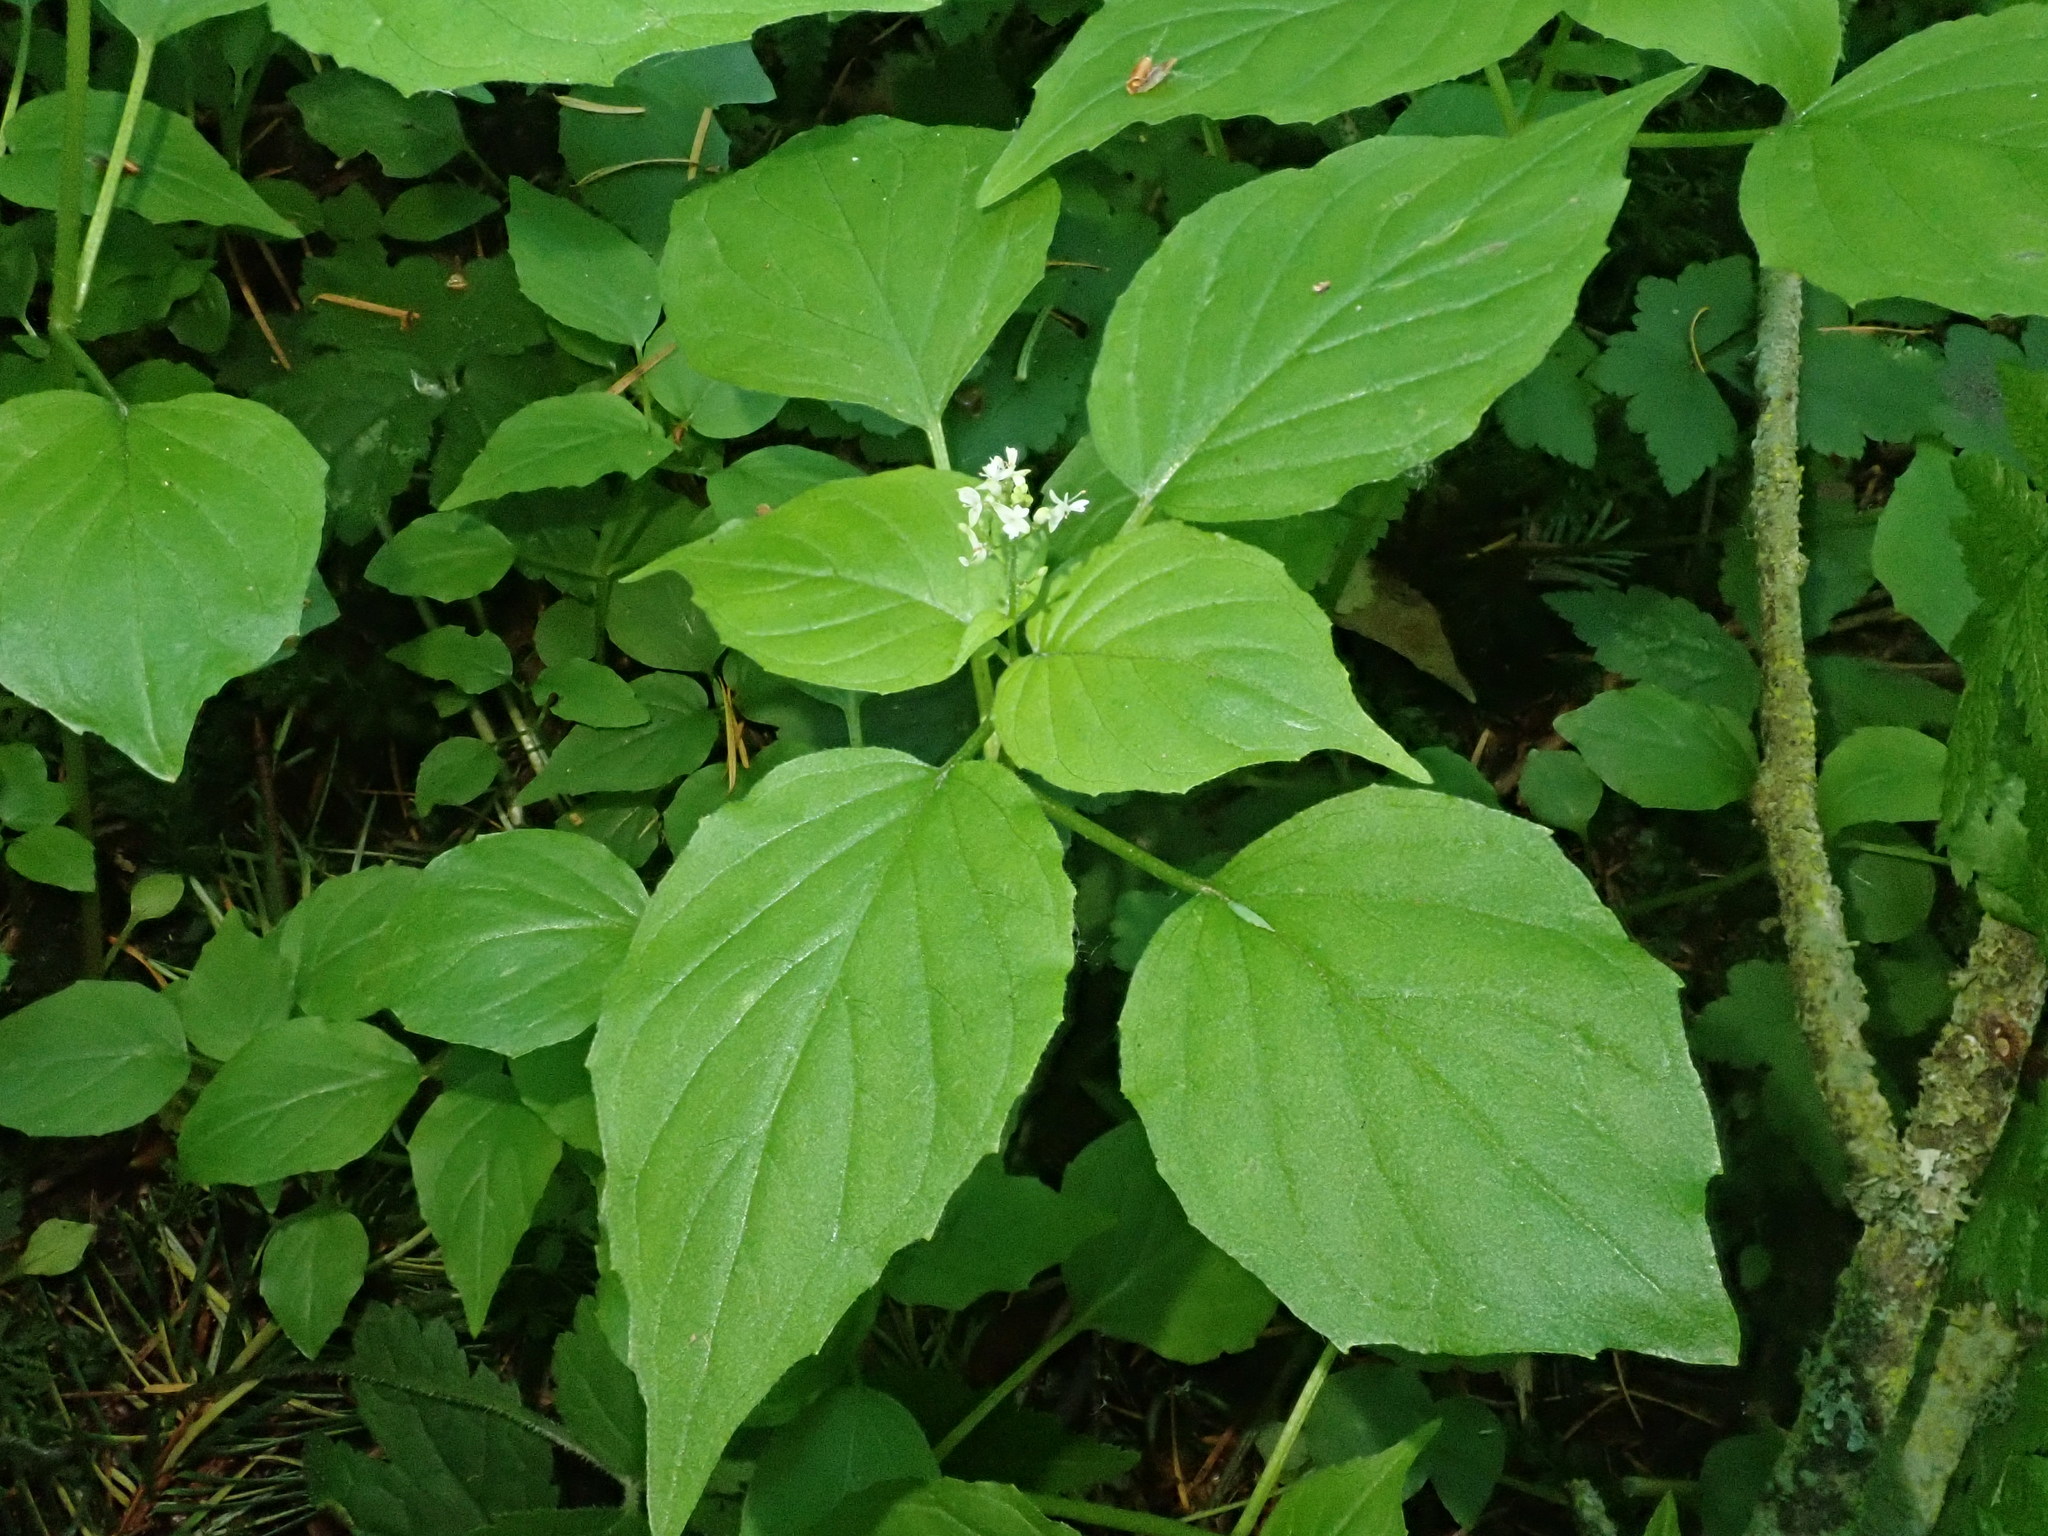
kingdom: Plantae
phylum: Tracheophyta
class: Magnoliopsida
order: Myrtales
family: Onagraceae
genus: Circaea
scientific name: Circaea alpina
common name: Alpine enchanter's-nightshade
